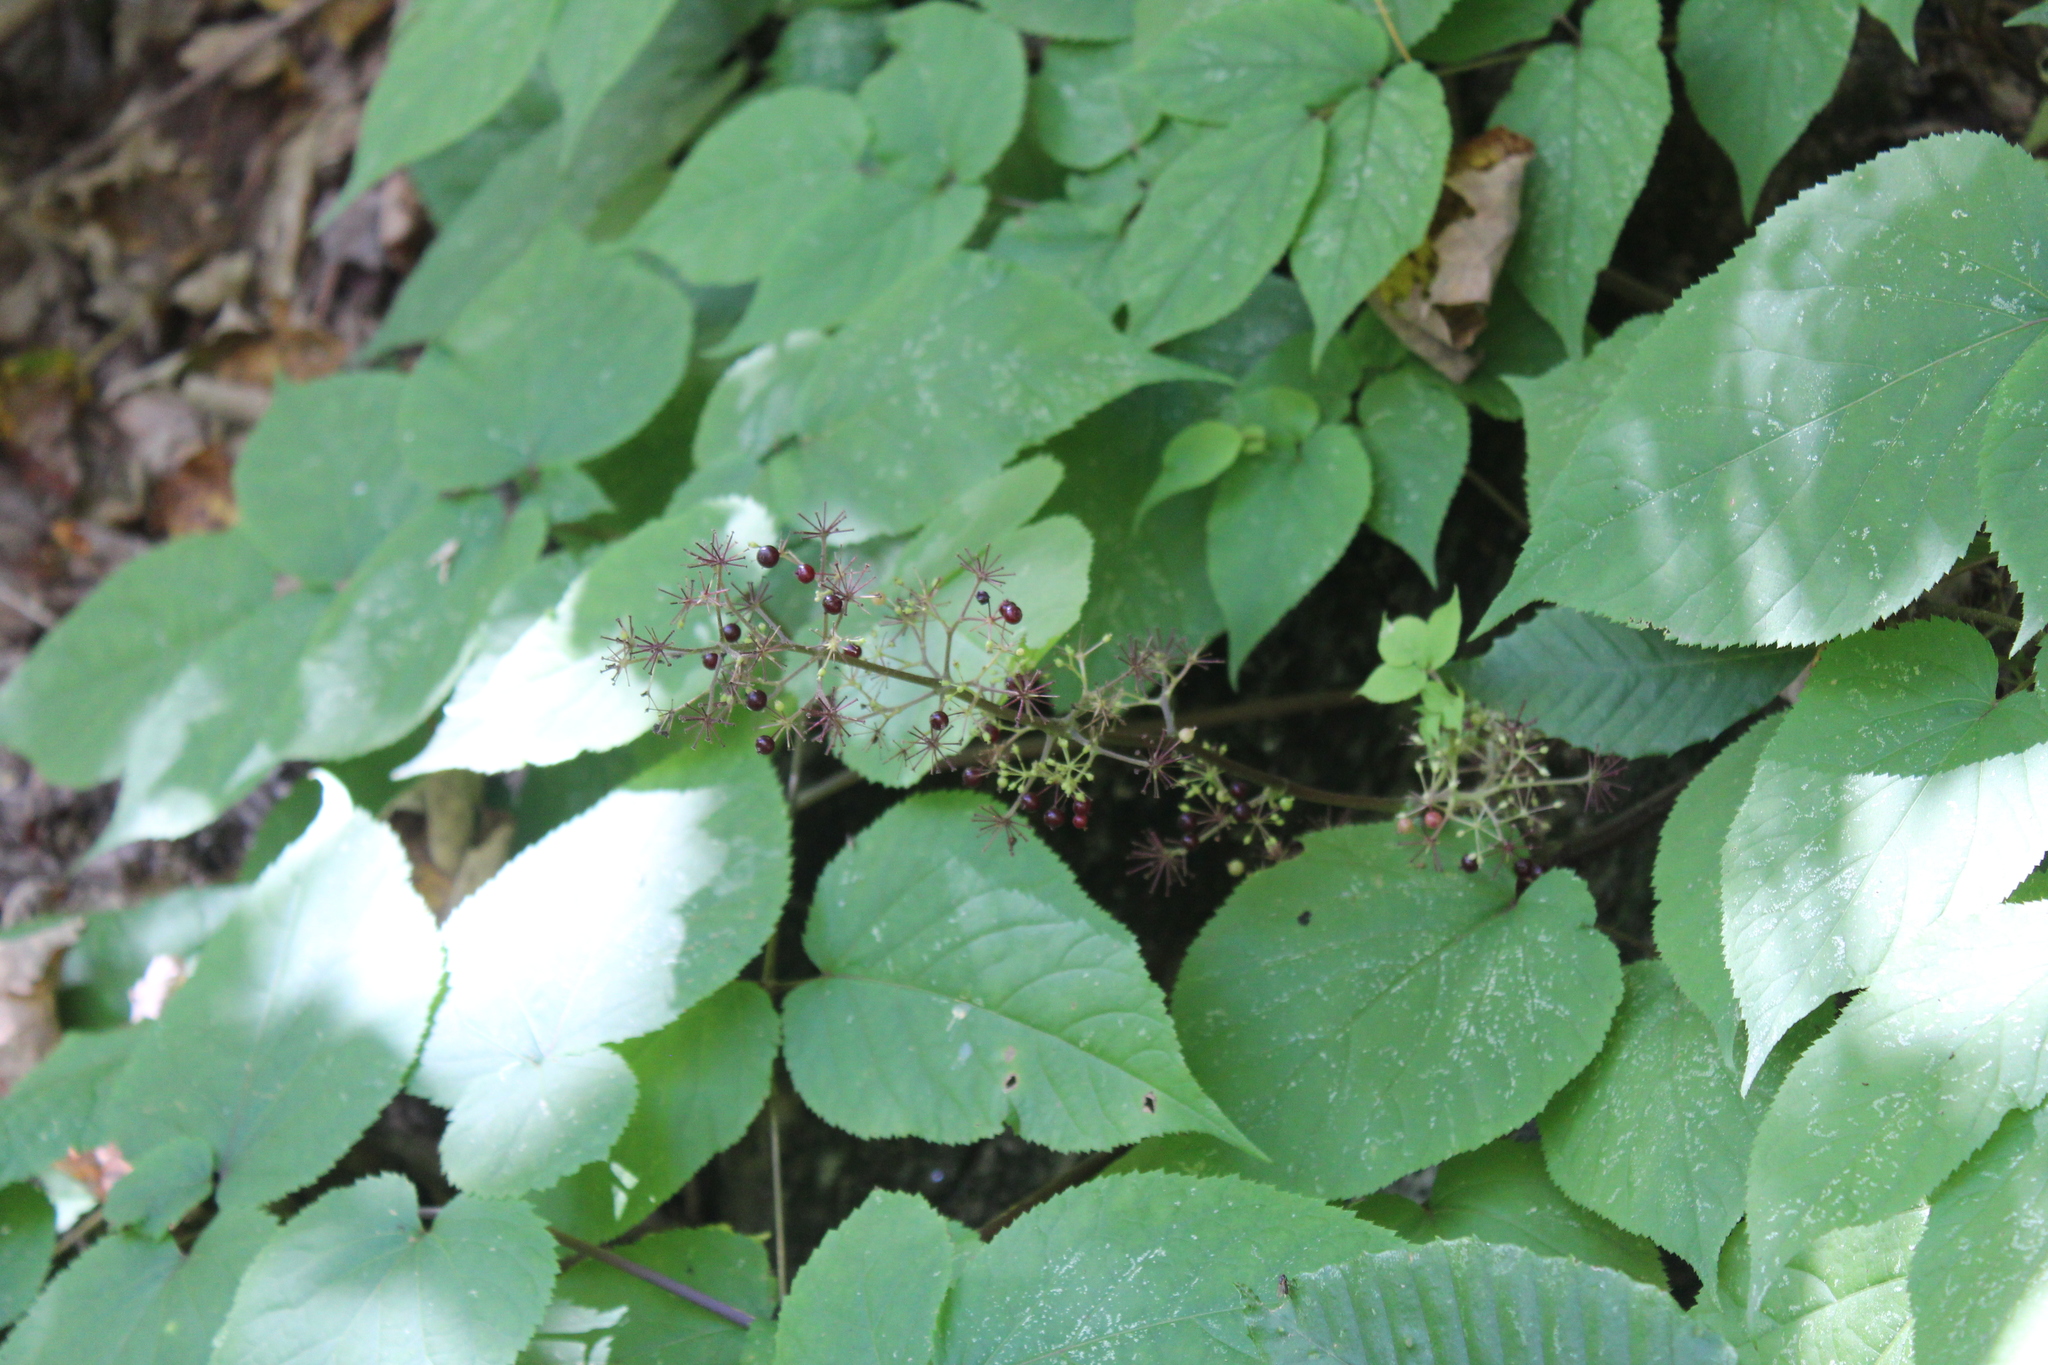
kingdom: Plantae
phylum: Tracheophyta
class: Magnoliopsida
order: Apiales
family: Araliaceae
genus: Aralia
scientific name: Aralia racemosa
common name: American-spikenard
